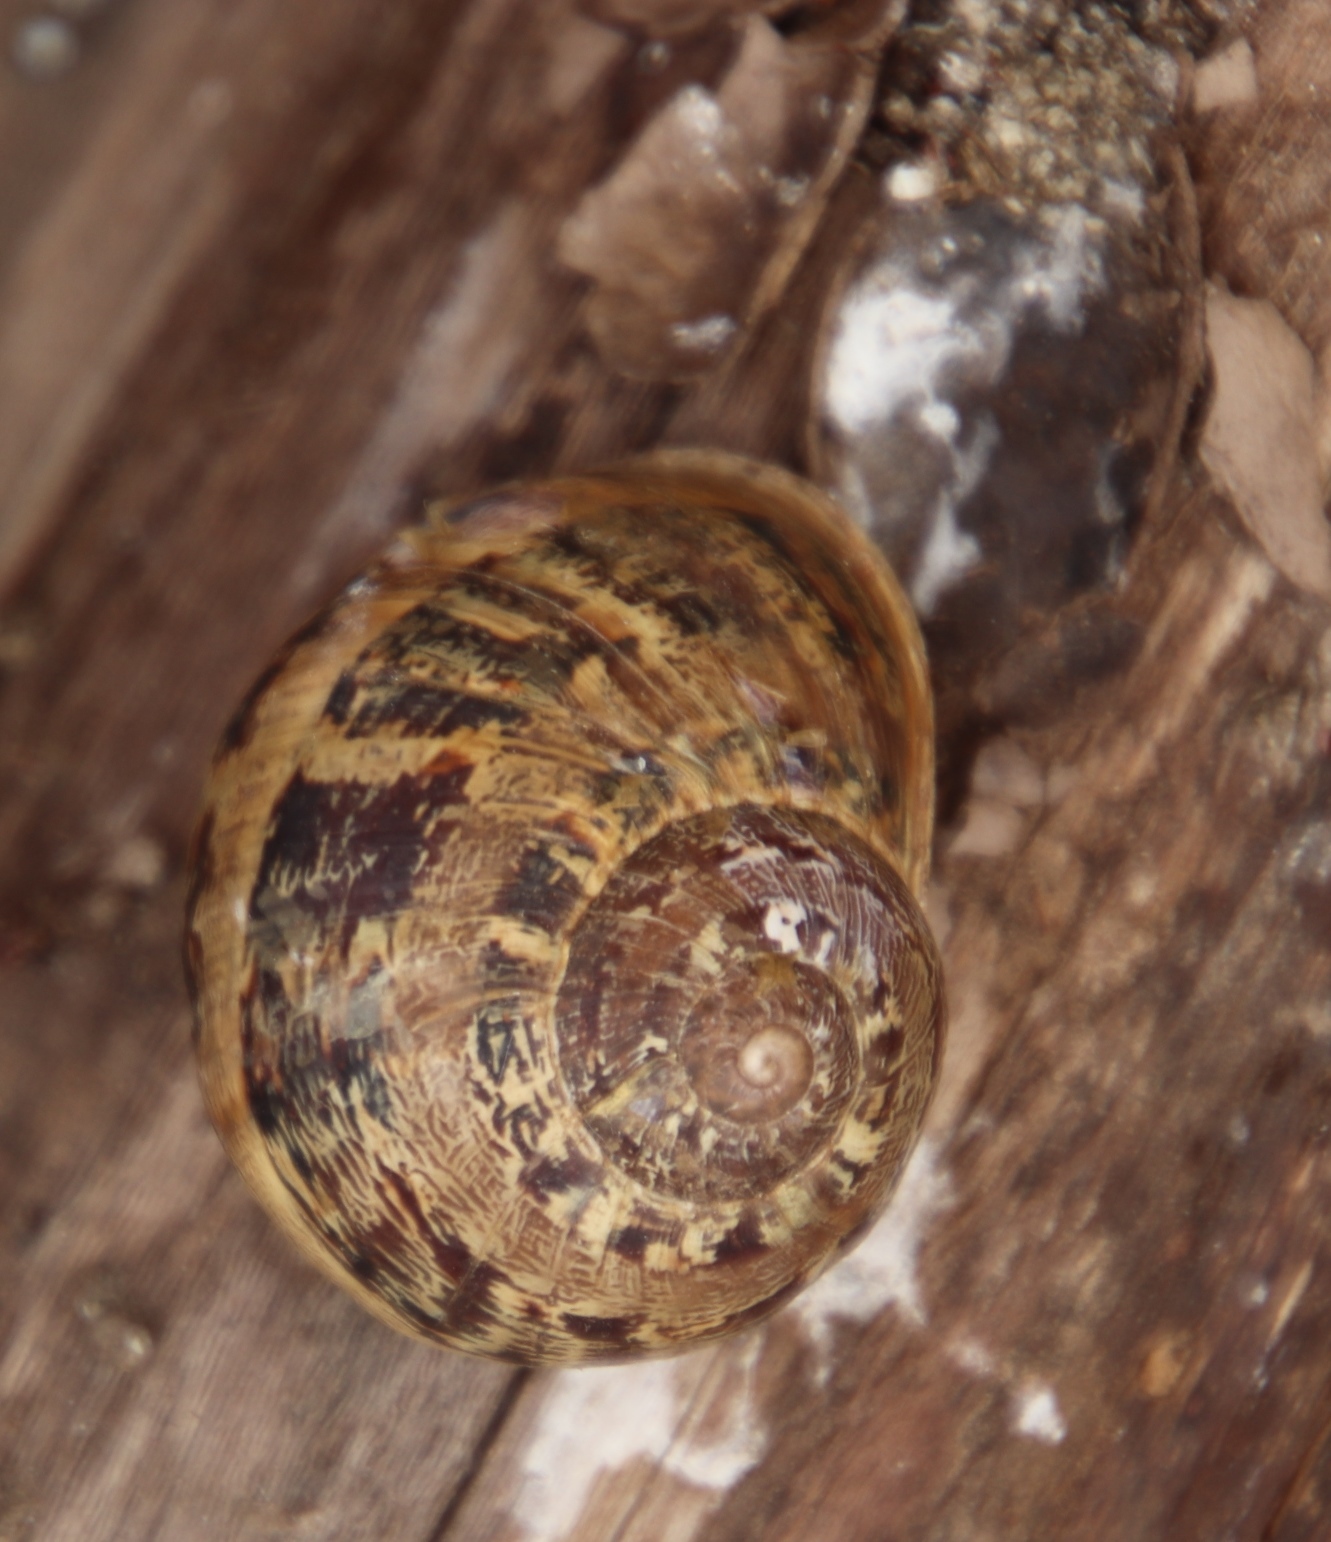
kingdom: Animalia
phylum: Mollusca
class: Gastropoda
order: Stylommatophora
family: Helicidae
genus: Cornu
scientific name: Cornu aspersum
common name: Brown garden snail
